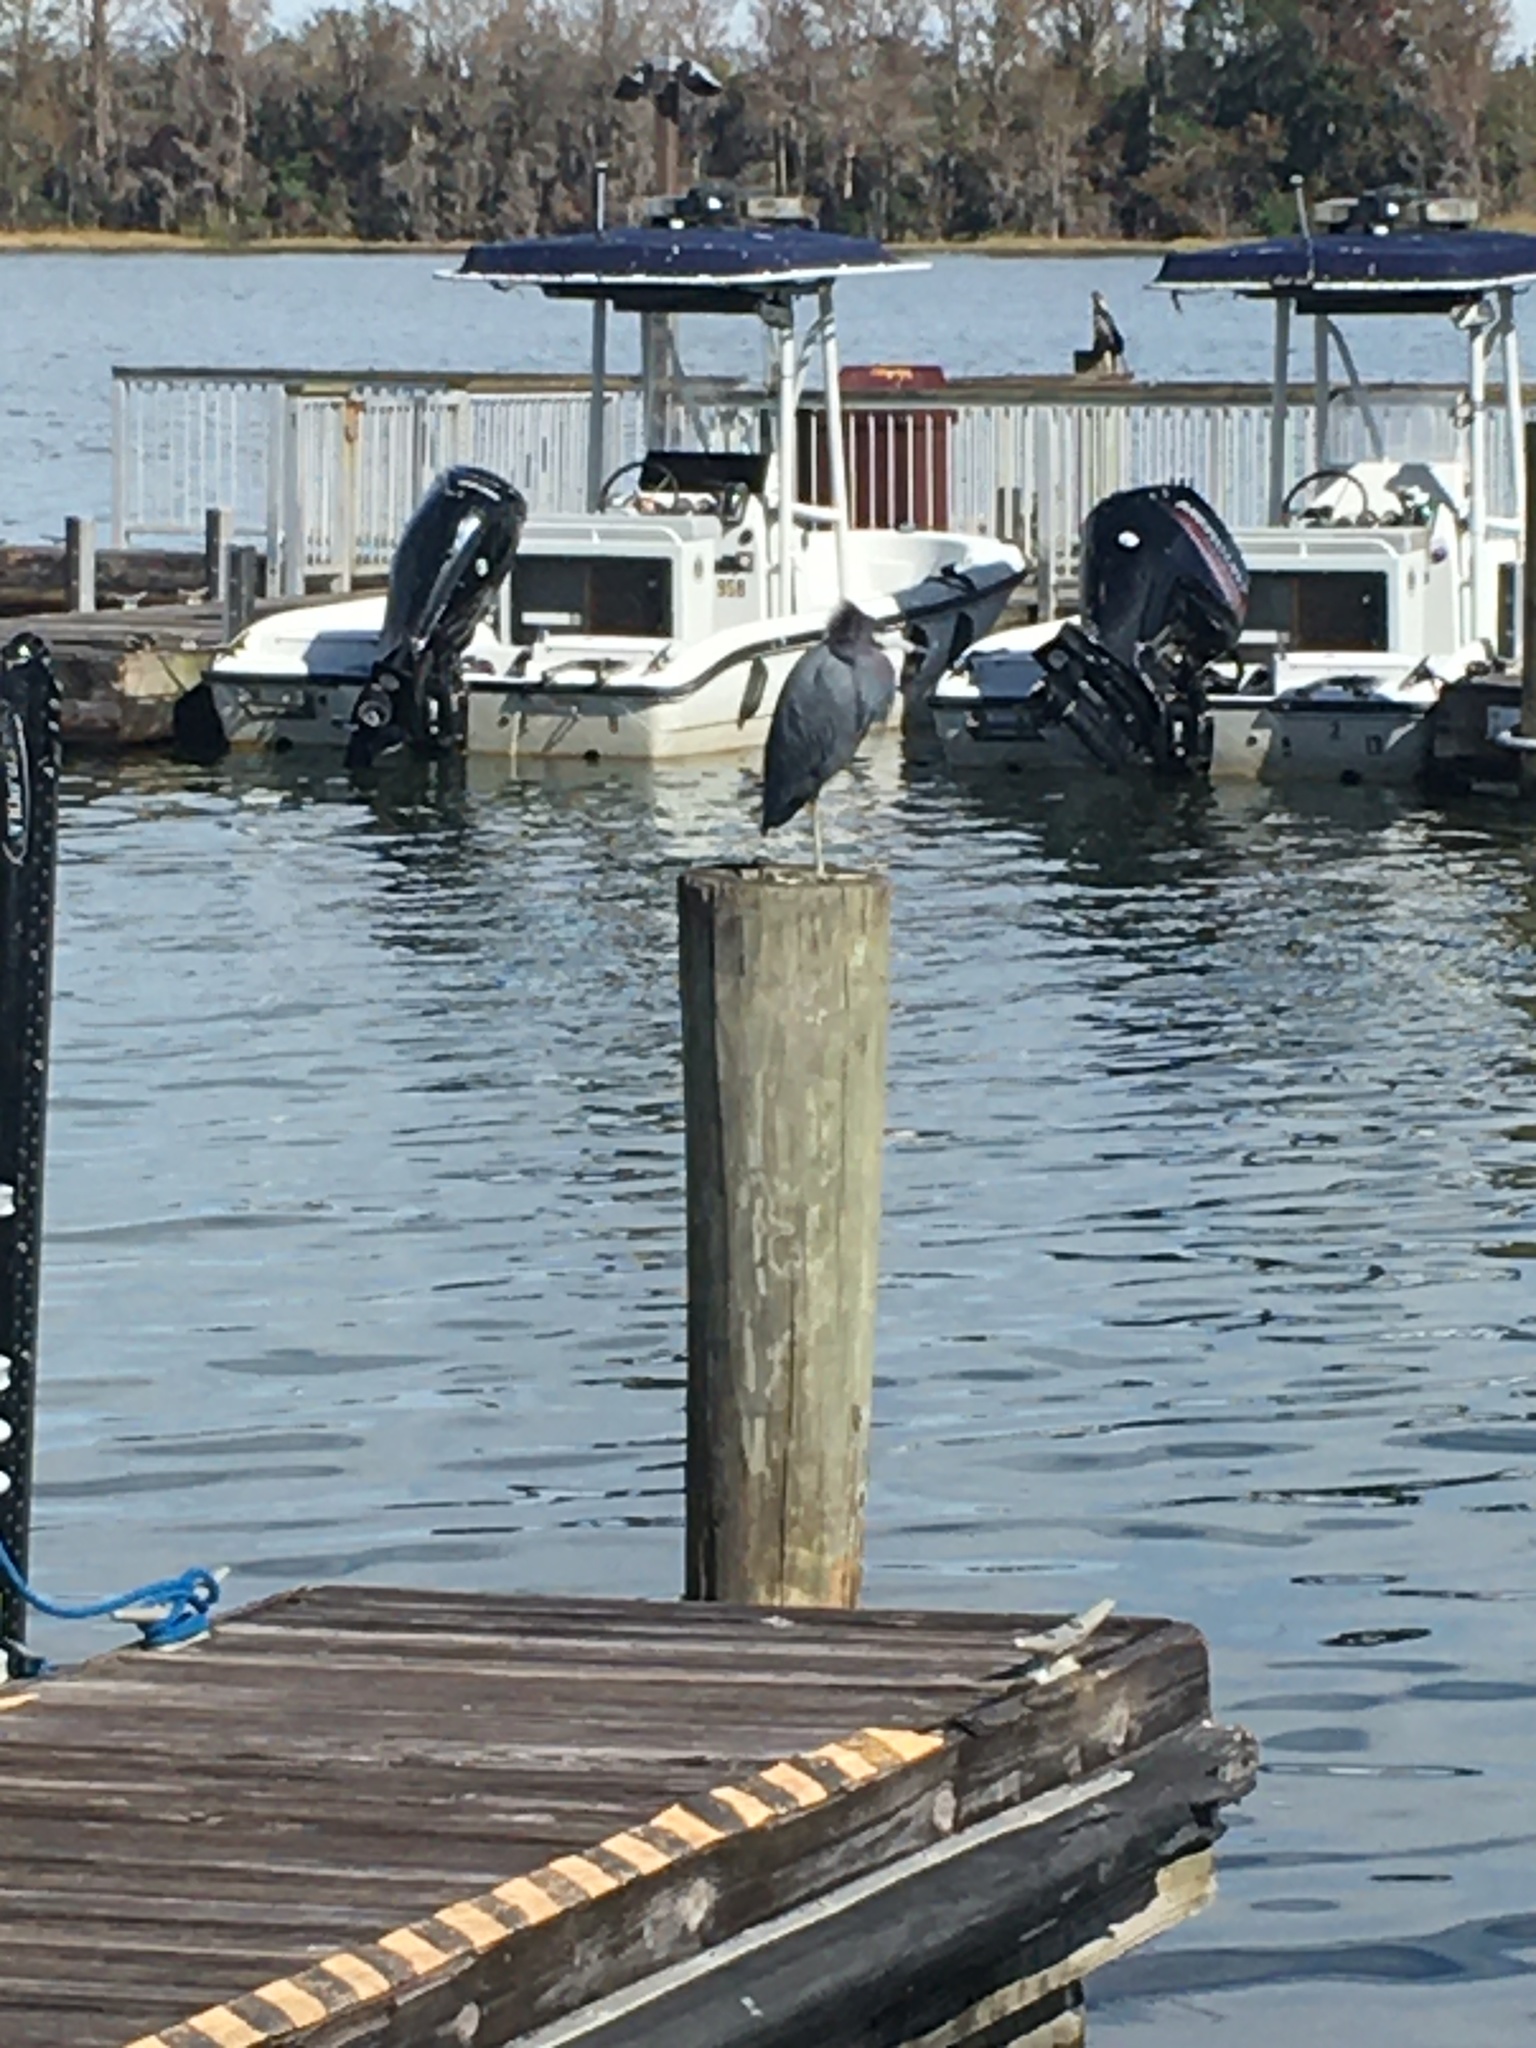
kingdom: Animalia
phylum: Chordata
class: Aves
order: Pelecaniformes
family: Ardeidae
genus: Egretta
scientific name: Egretta caerulea
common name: Little blue heron
